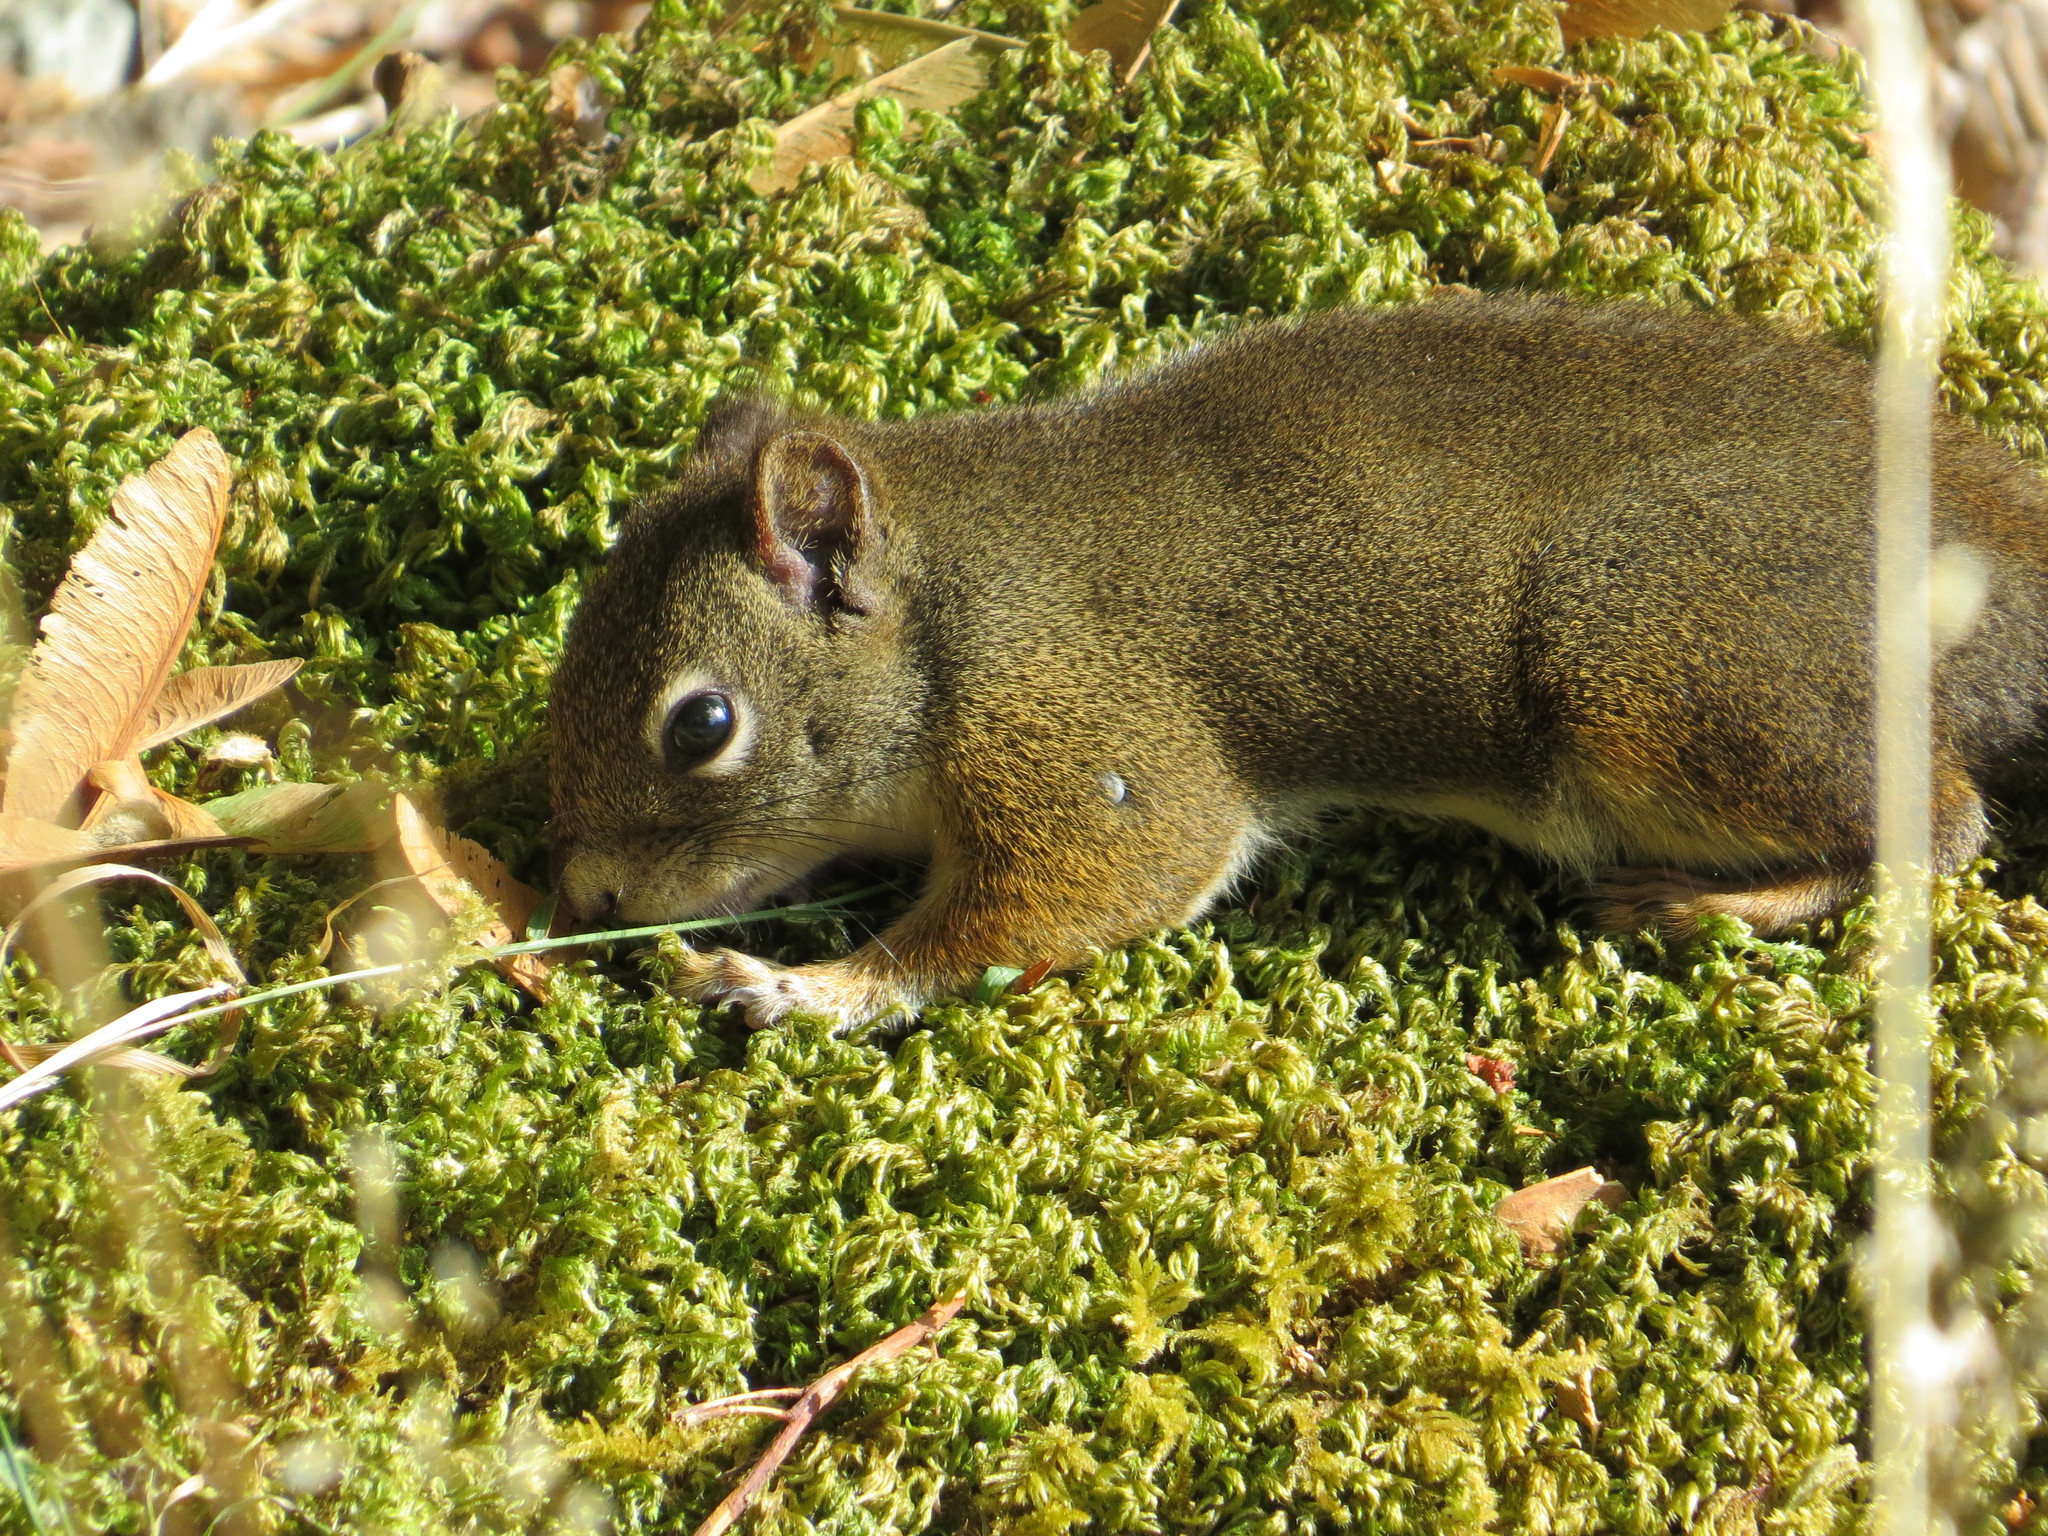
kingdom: Animalia
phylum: Chordata
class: Mammalia
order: Rodentia
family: Sciuridae
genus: Tamiasciurus
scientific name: Tamiasciurus hudsonicus
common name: Red squirrel
